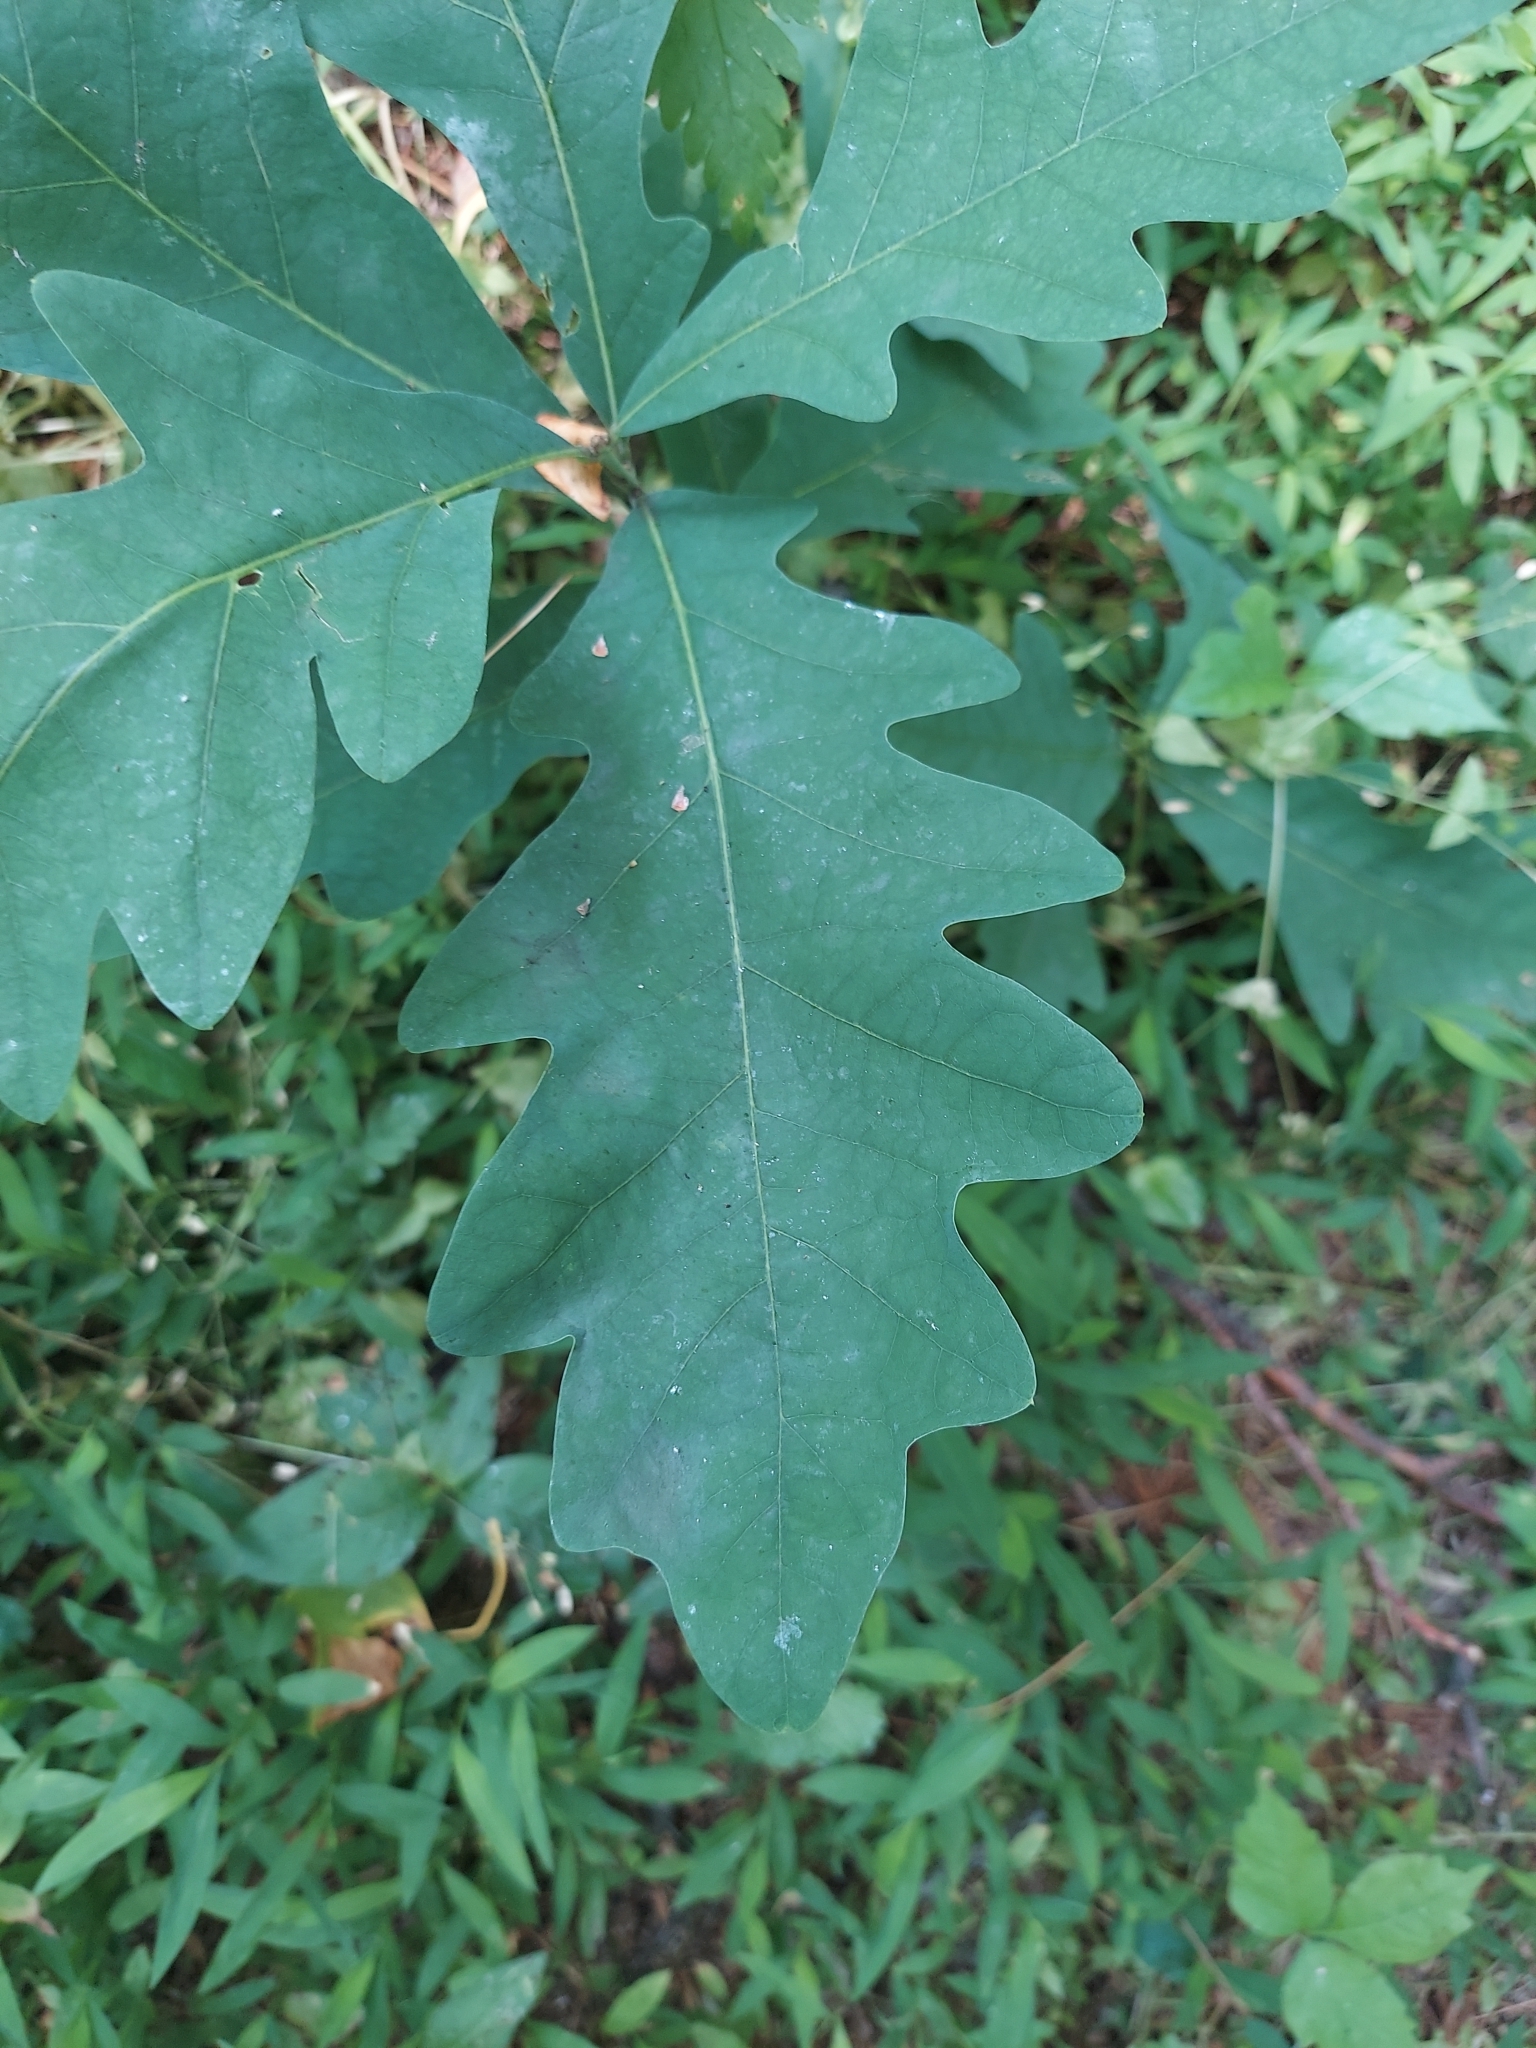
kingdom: Plantae
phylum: Tracheophyta
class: Magnoliopsida
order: Fagales
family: Fagaceae
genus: Quercus
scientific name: Quercus alba
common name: White oak
